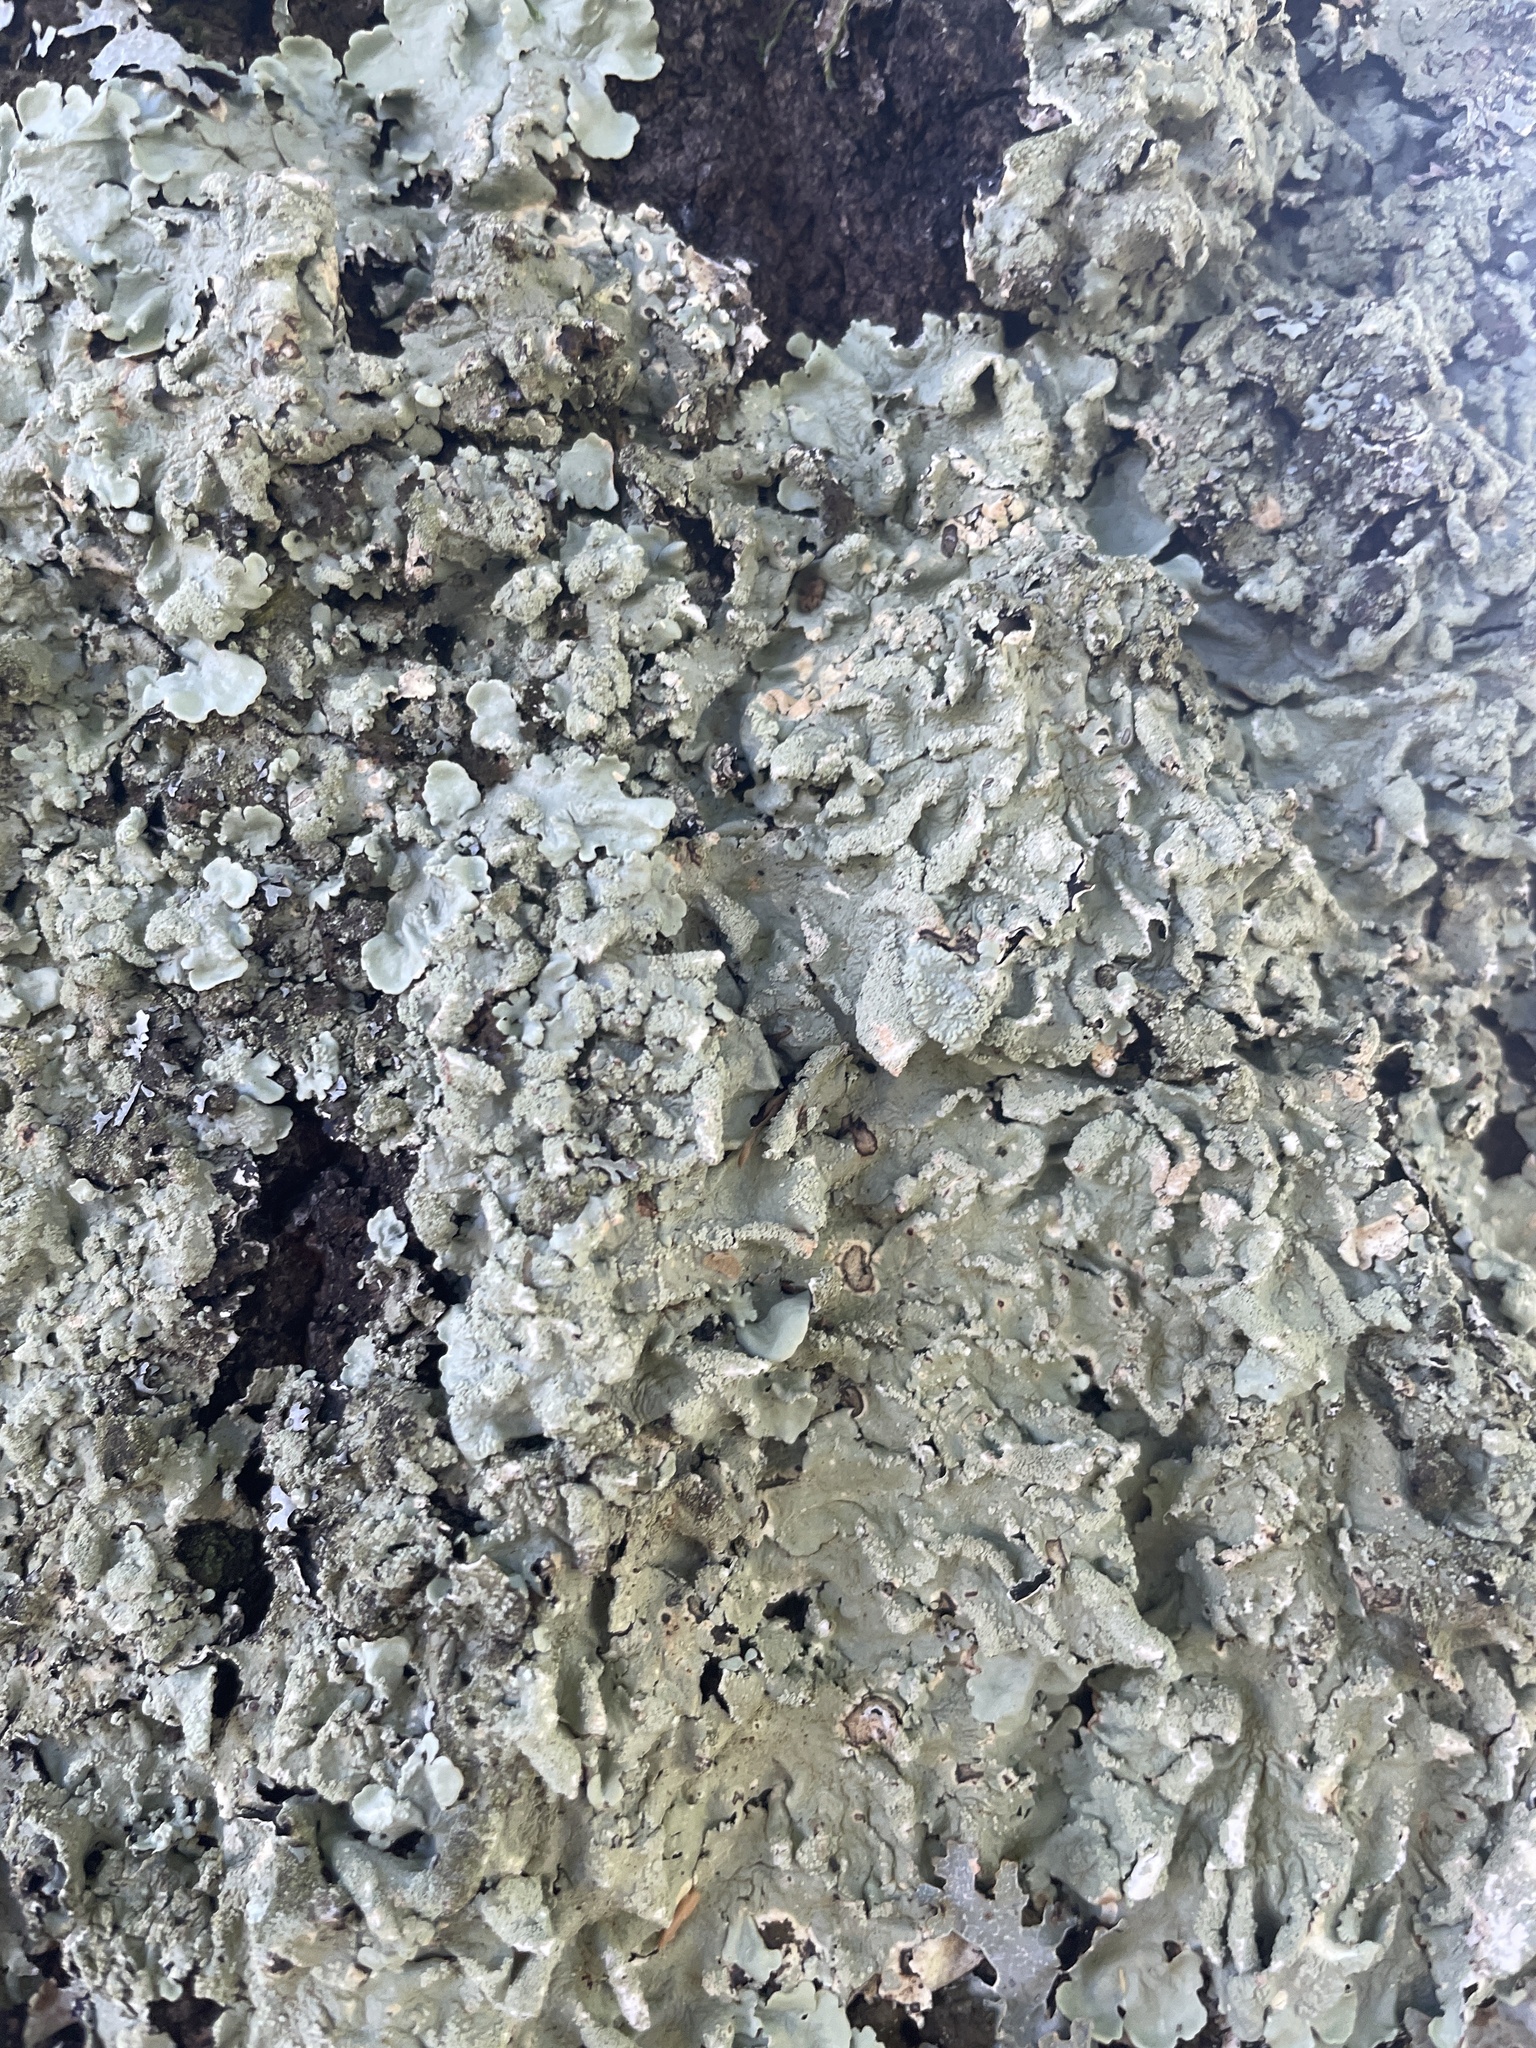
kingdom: Fungi
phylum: Ascomycota
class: Lecanoromycetes
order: Lecanorales
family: Parmeliaceae
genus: Flavoparmelia
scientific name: Flavoparmelia caperata
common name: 40-mile per hour lichen
